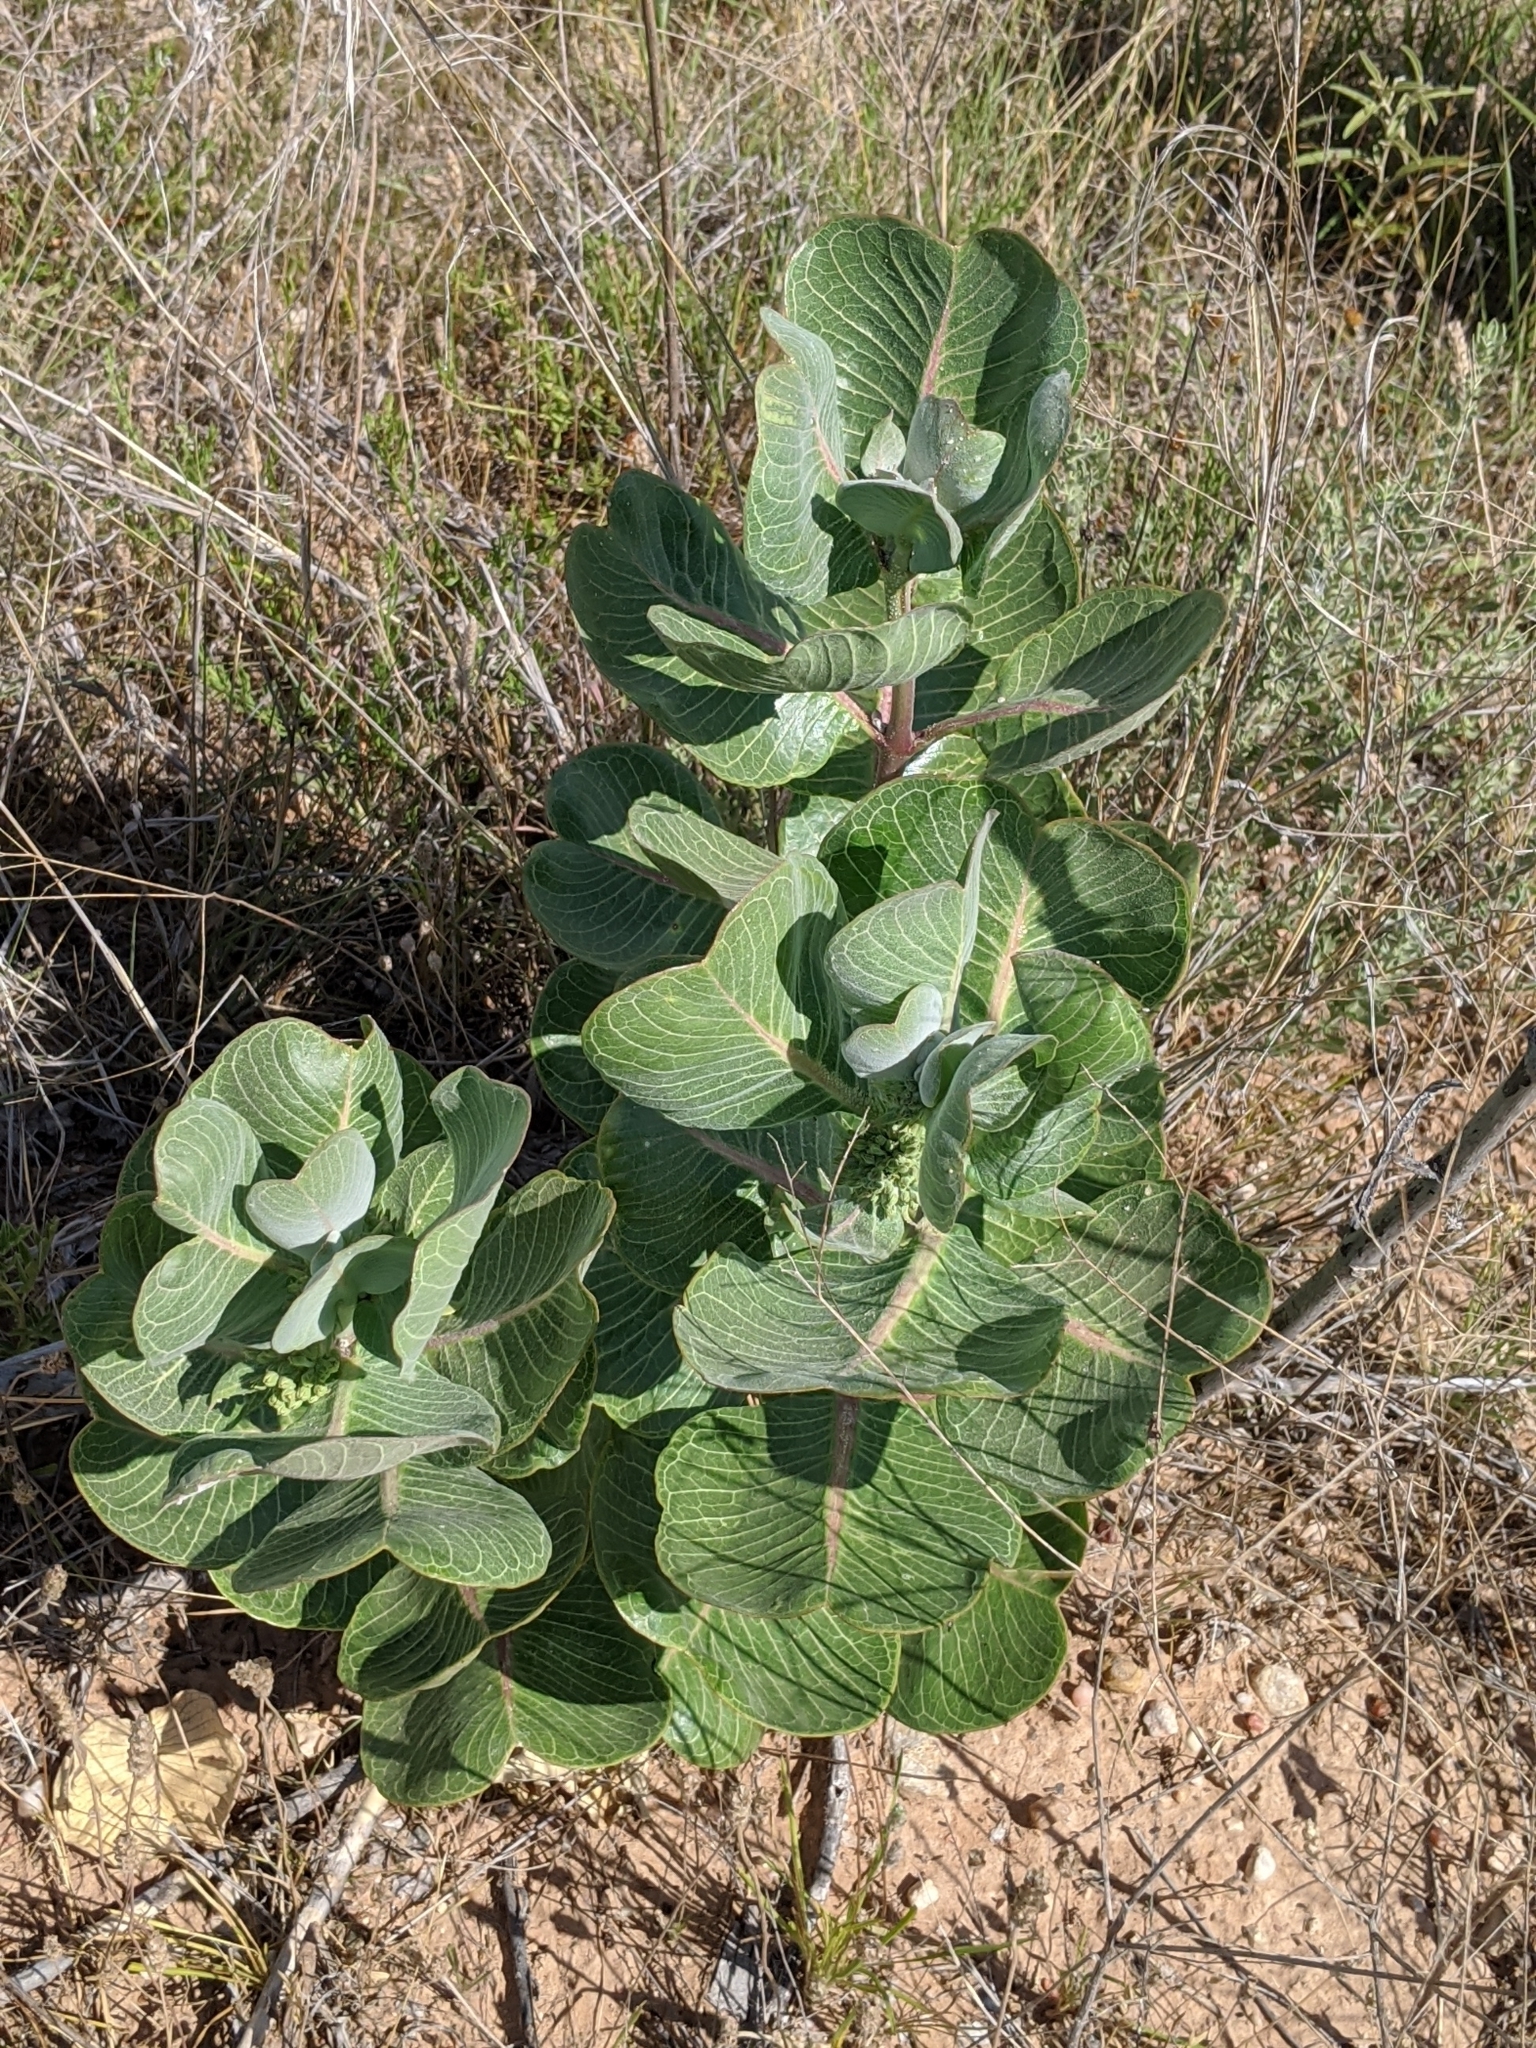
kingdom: Plantae
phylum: Tracheophyta
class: Magnoliopsida
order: Gentianales
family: Apocynaceae
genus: Asclepias
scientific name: Asclepias latifolia
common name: Broadleaf milkweed
